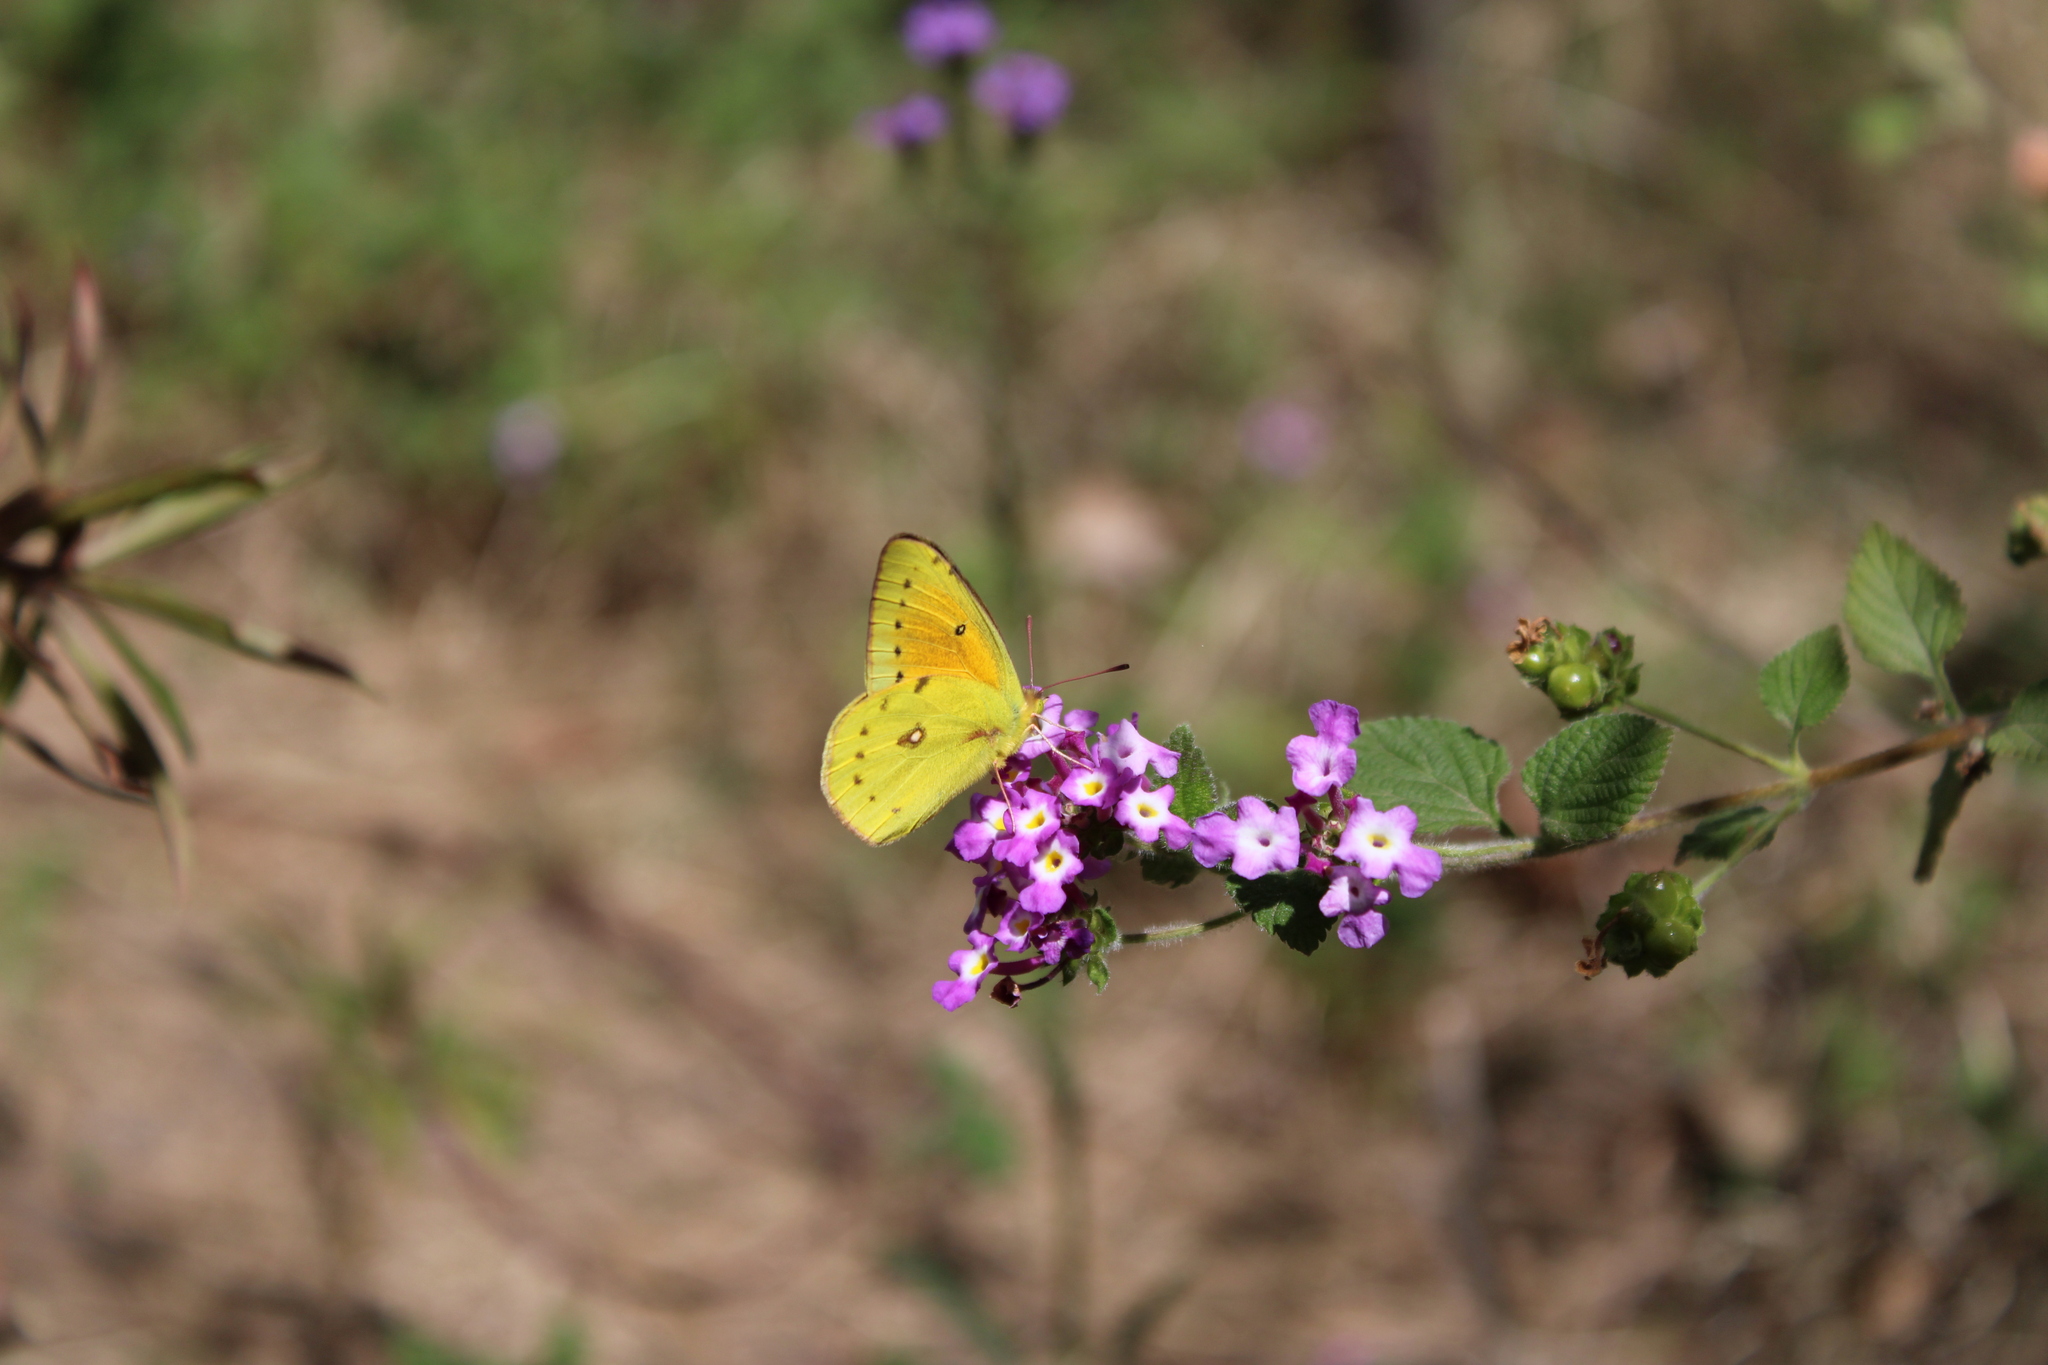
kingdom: Animalia
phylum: Arthropoda
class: Insecta
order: Lepidoptera
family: Pieridae
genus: Colias
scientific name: Colias lesbia
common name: Lesbia clouded yellow
